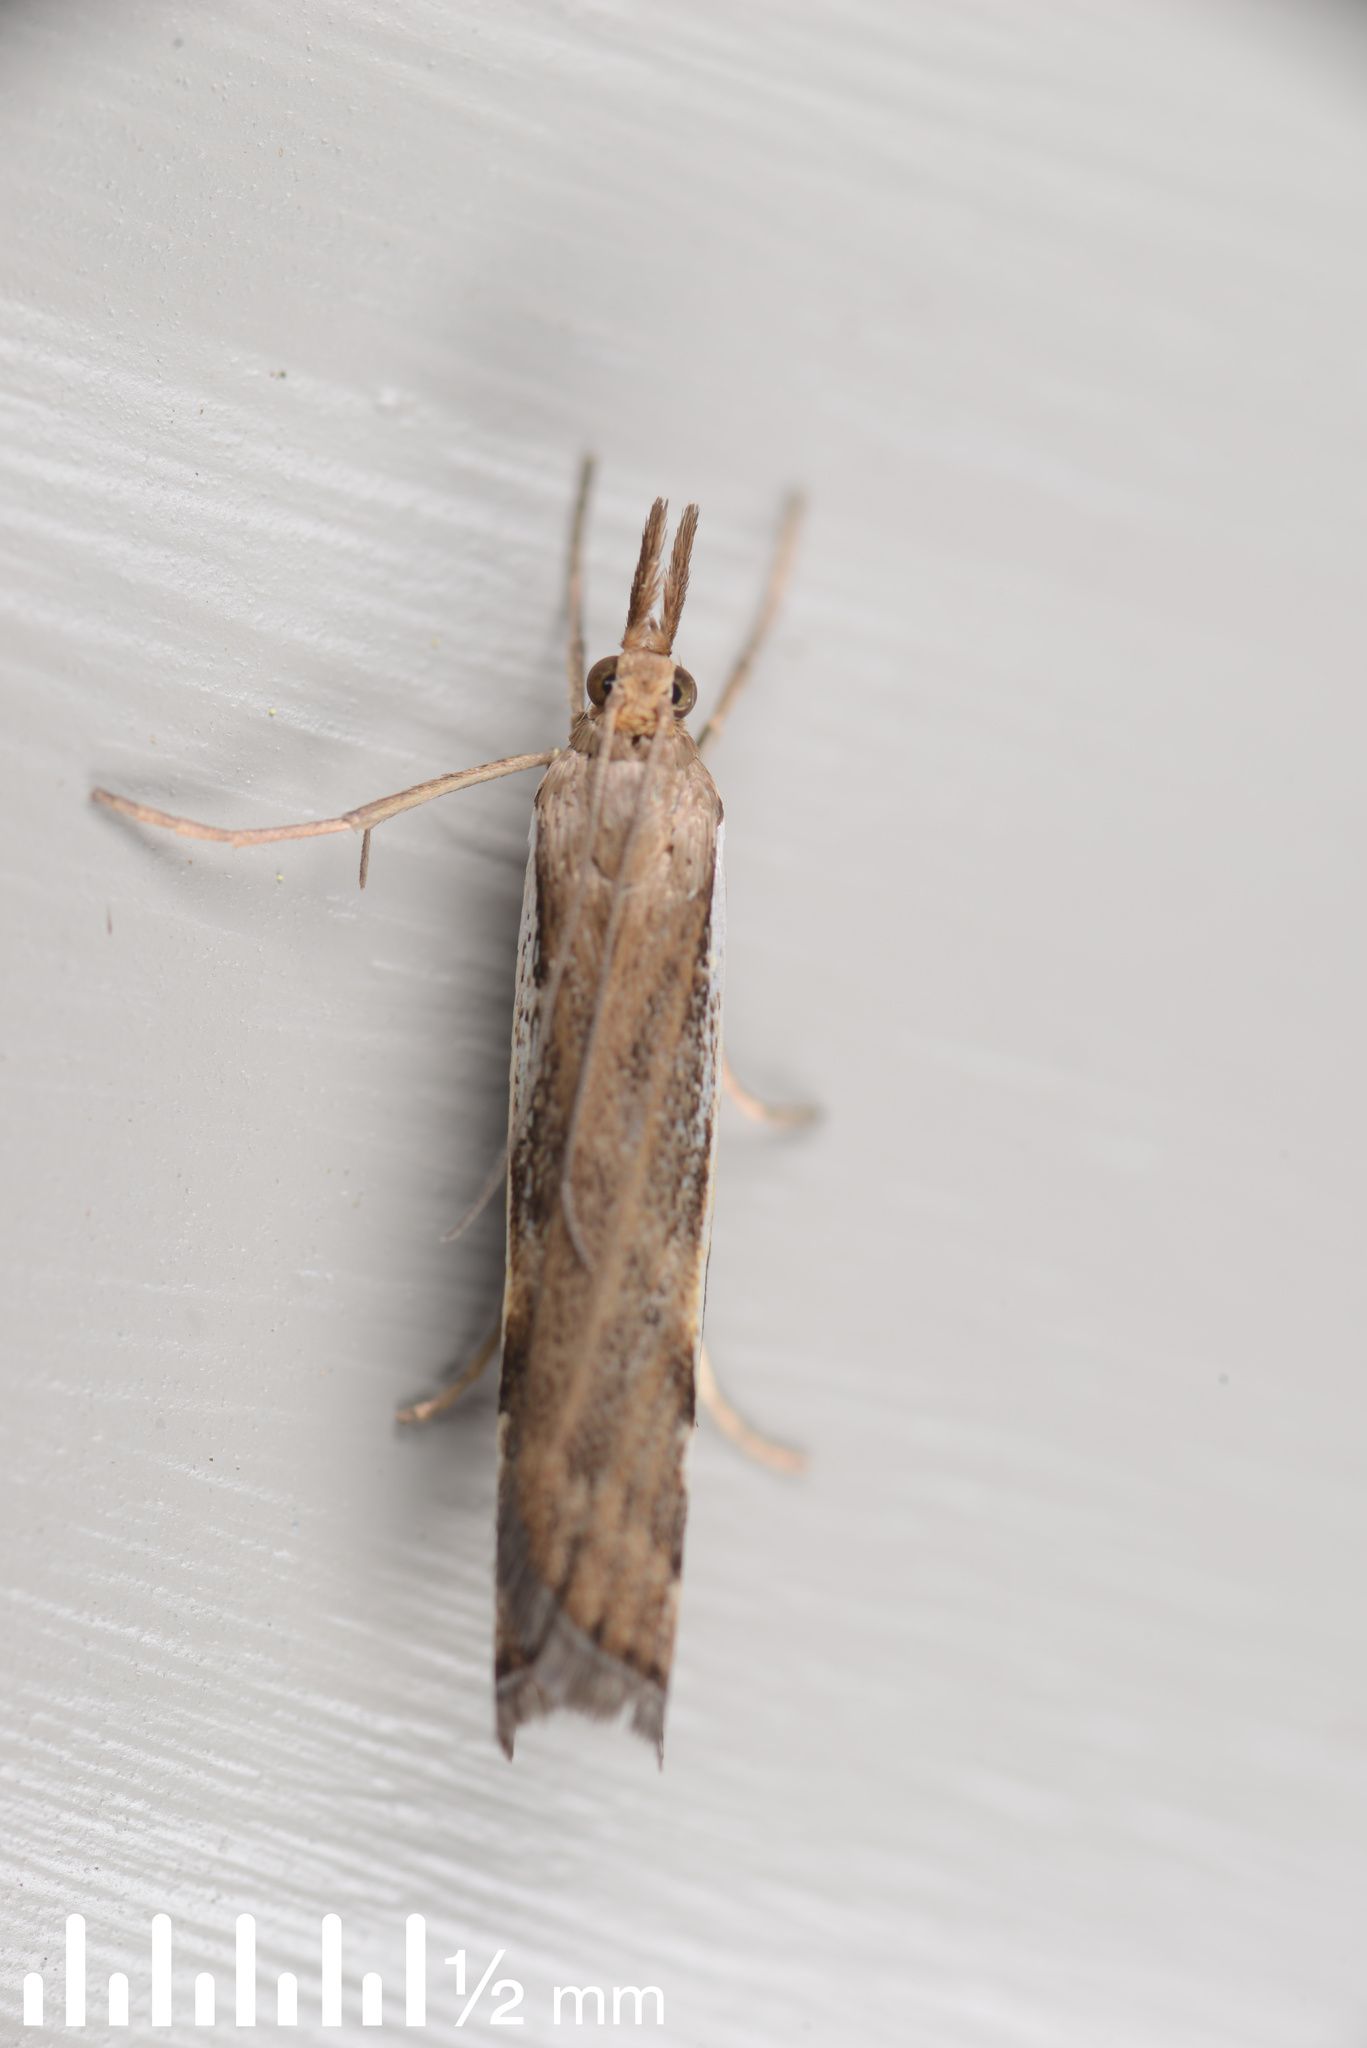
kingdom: Animalia
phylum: Arthropoda
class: Insecta
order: Lepidoptera
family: Crambidae
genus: Orocrambus
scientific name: Orocrambus flexuosellus
